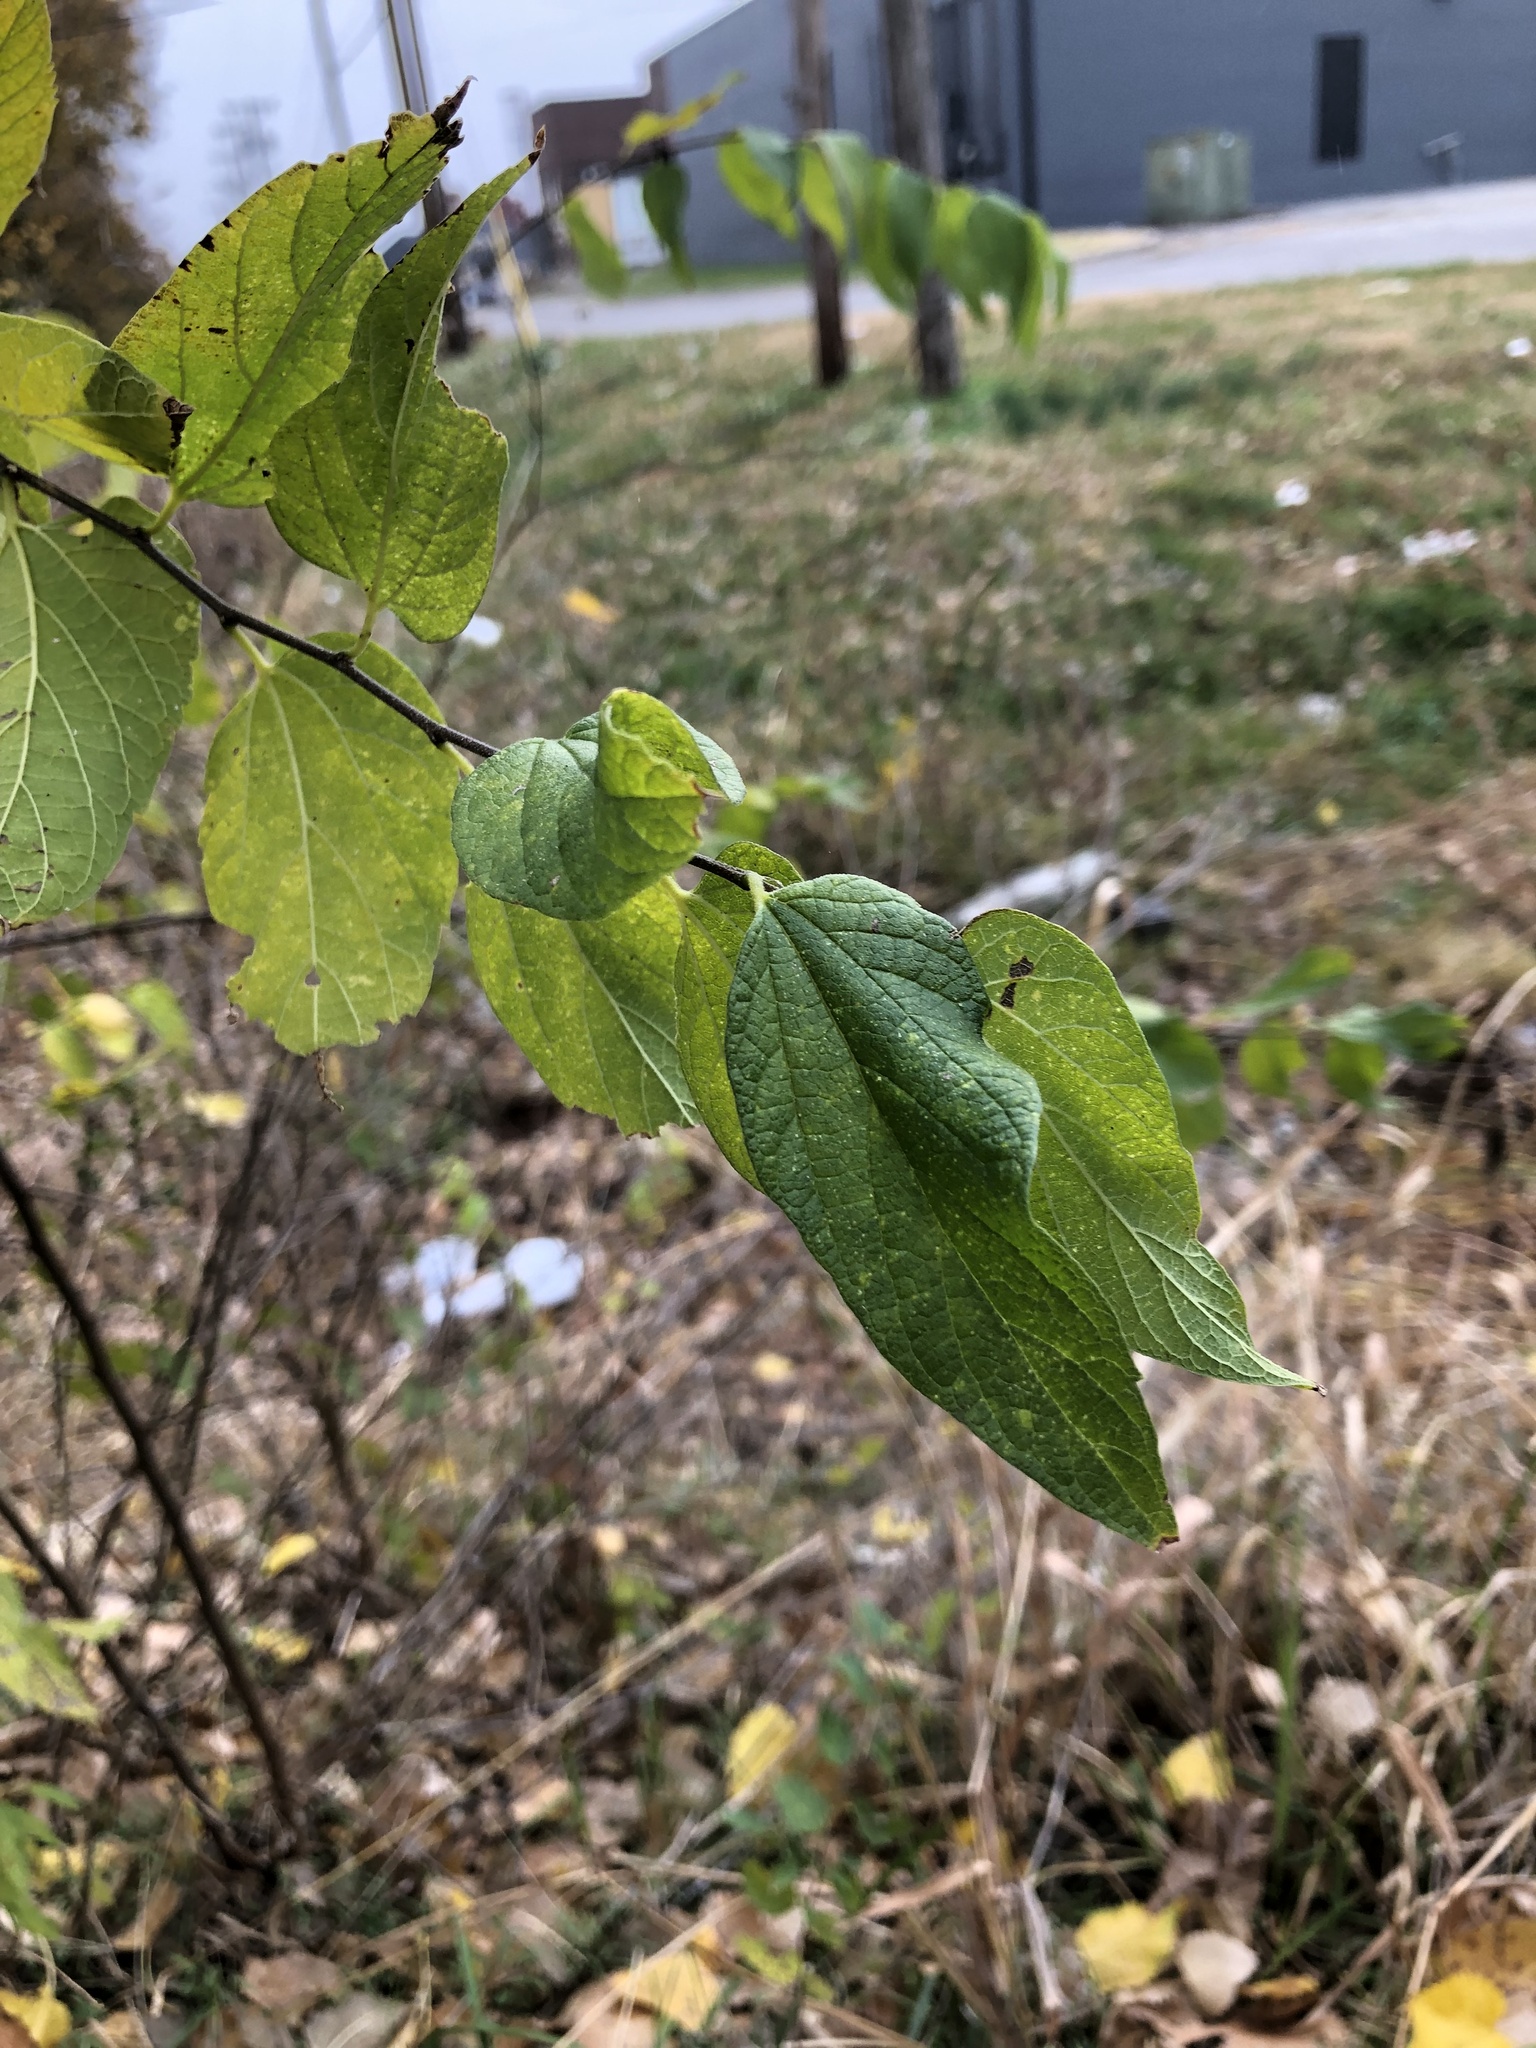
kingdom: Plantae
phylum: Tracheophyta
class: Magnoliopsida
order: Rosales
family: Cannabaceae
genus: Celtis
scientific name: Celtis laevigata
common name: Sugarberry
